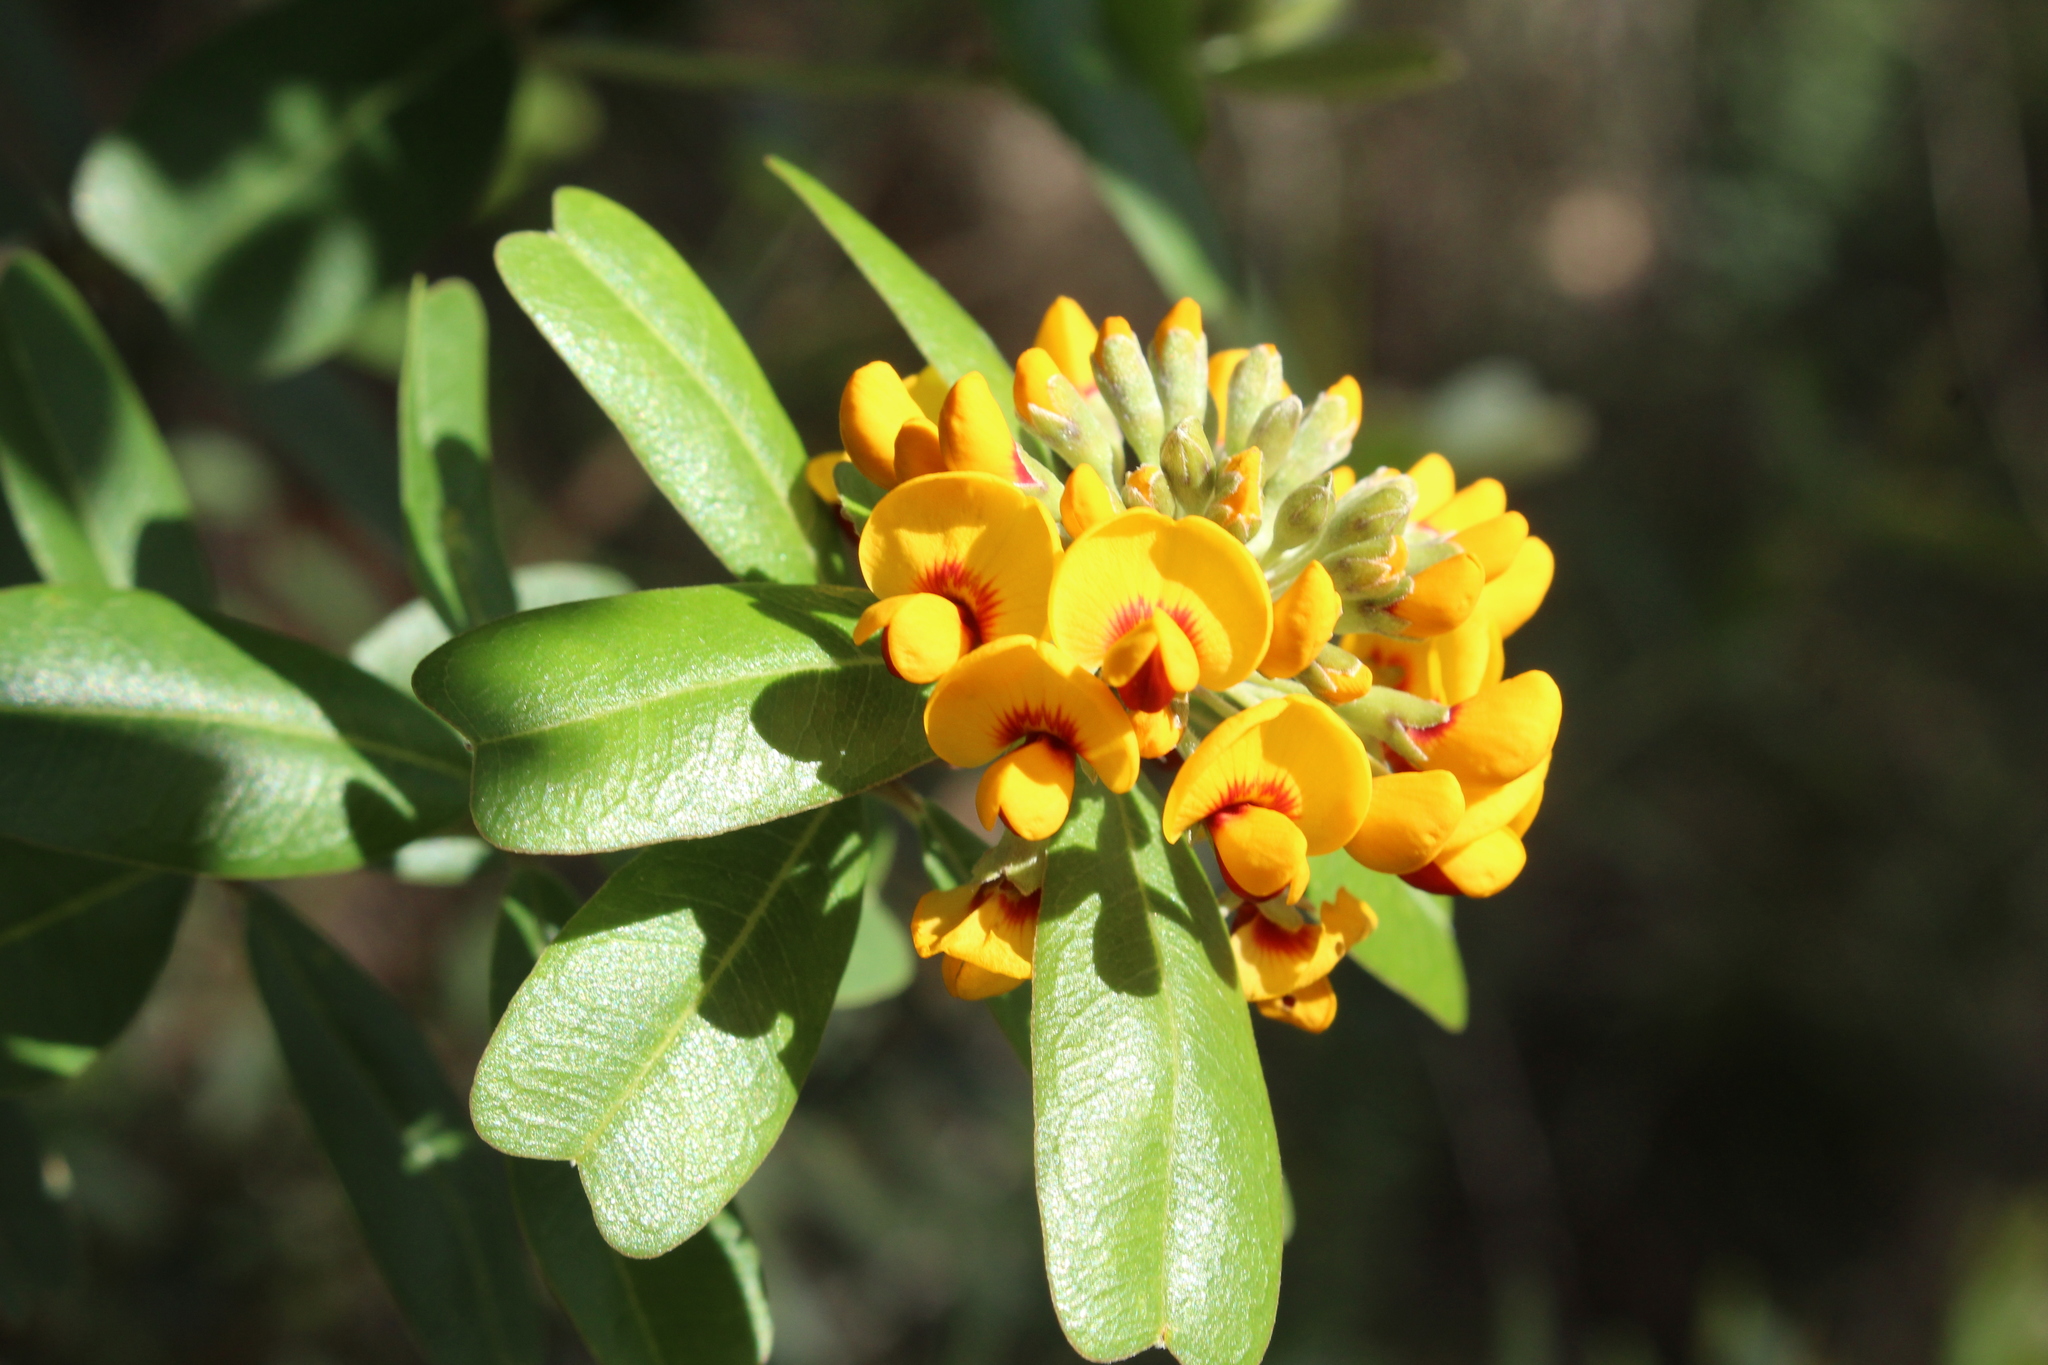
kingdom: Plantae
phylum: Tracheophyta
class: Magnoliopsida
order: Fabales
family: Fabaceae
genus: Gastrolobium
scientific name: Gastrolobium bilobum
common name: Heart-leaf poisonbush
